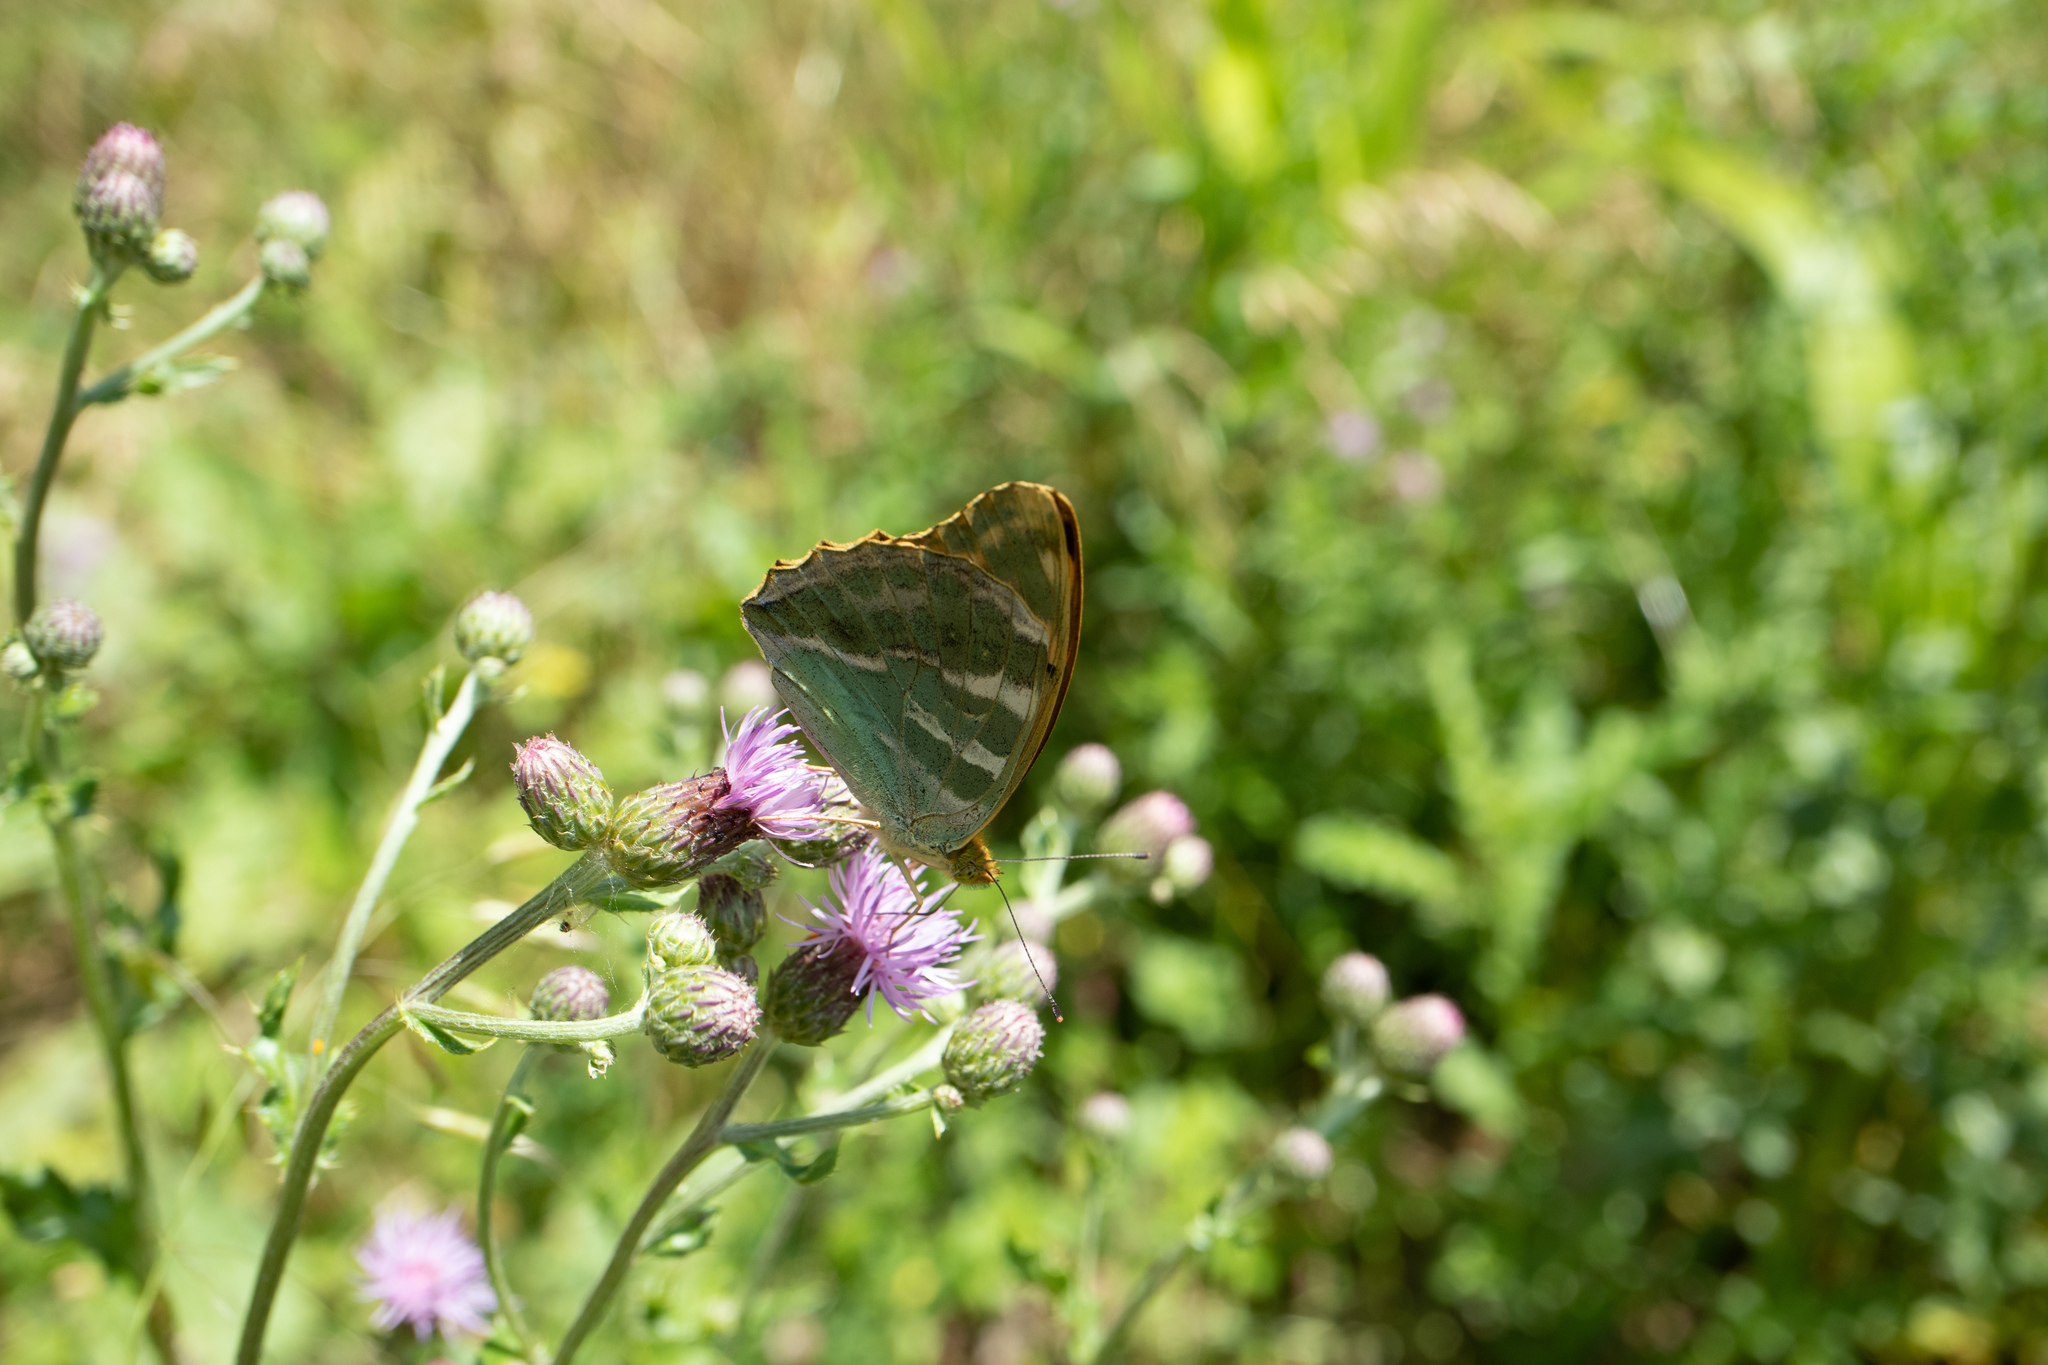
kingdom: Animalia
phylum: Arthropoda
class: Insecta
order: Lepidoptera
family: Nymphalidae
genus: Argynnis
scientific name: Argynnis paphia
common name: Silver-washed fritillary
